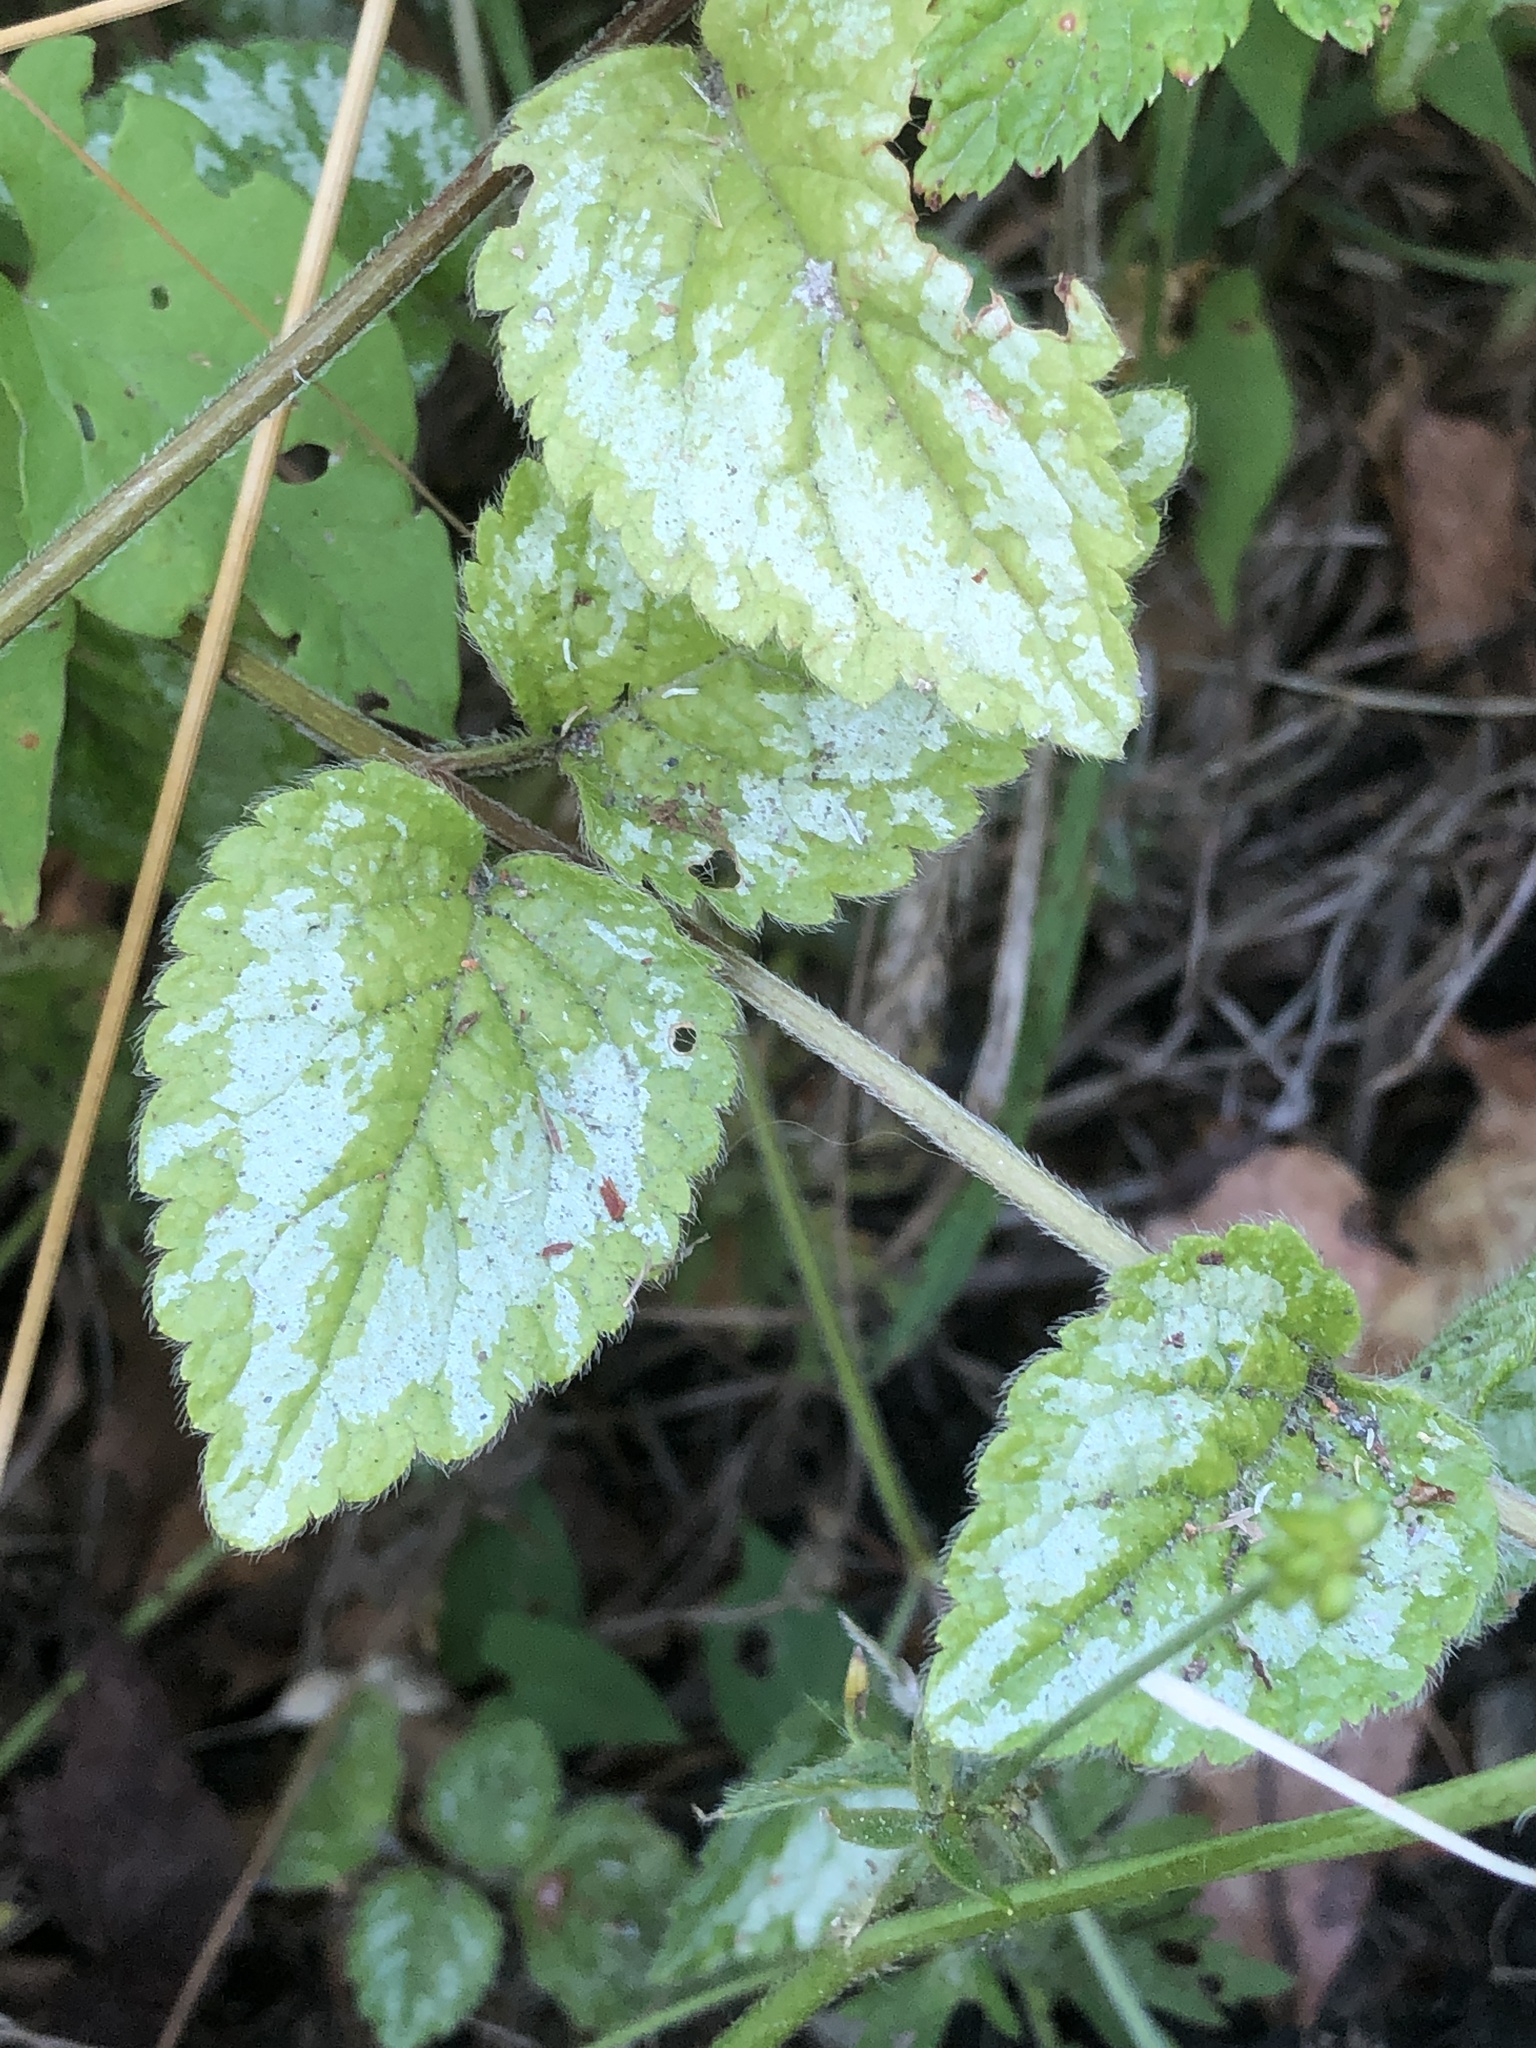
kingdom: Plantae
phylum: Tracheophyta
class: Magnoliopsida
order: Lamiales
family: Lamiaceae
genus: Lamium
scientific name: Lamium galeobdolon
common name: Yellow archangel
